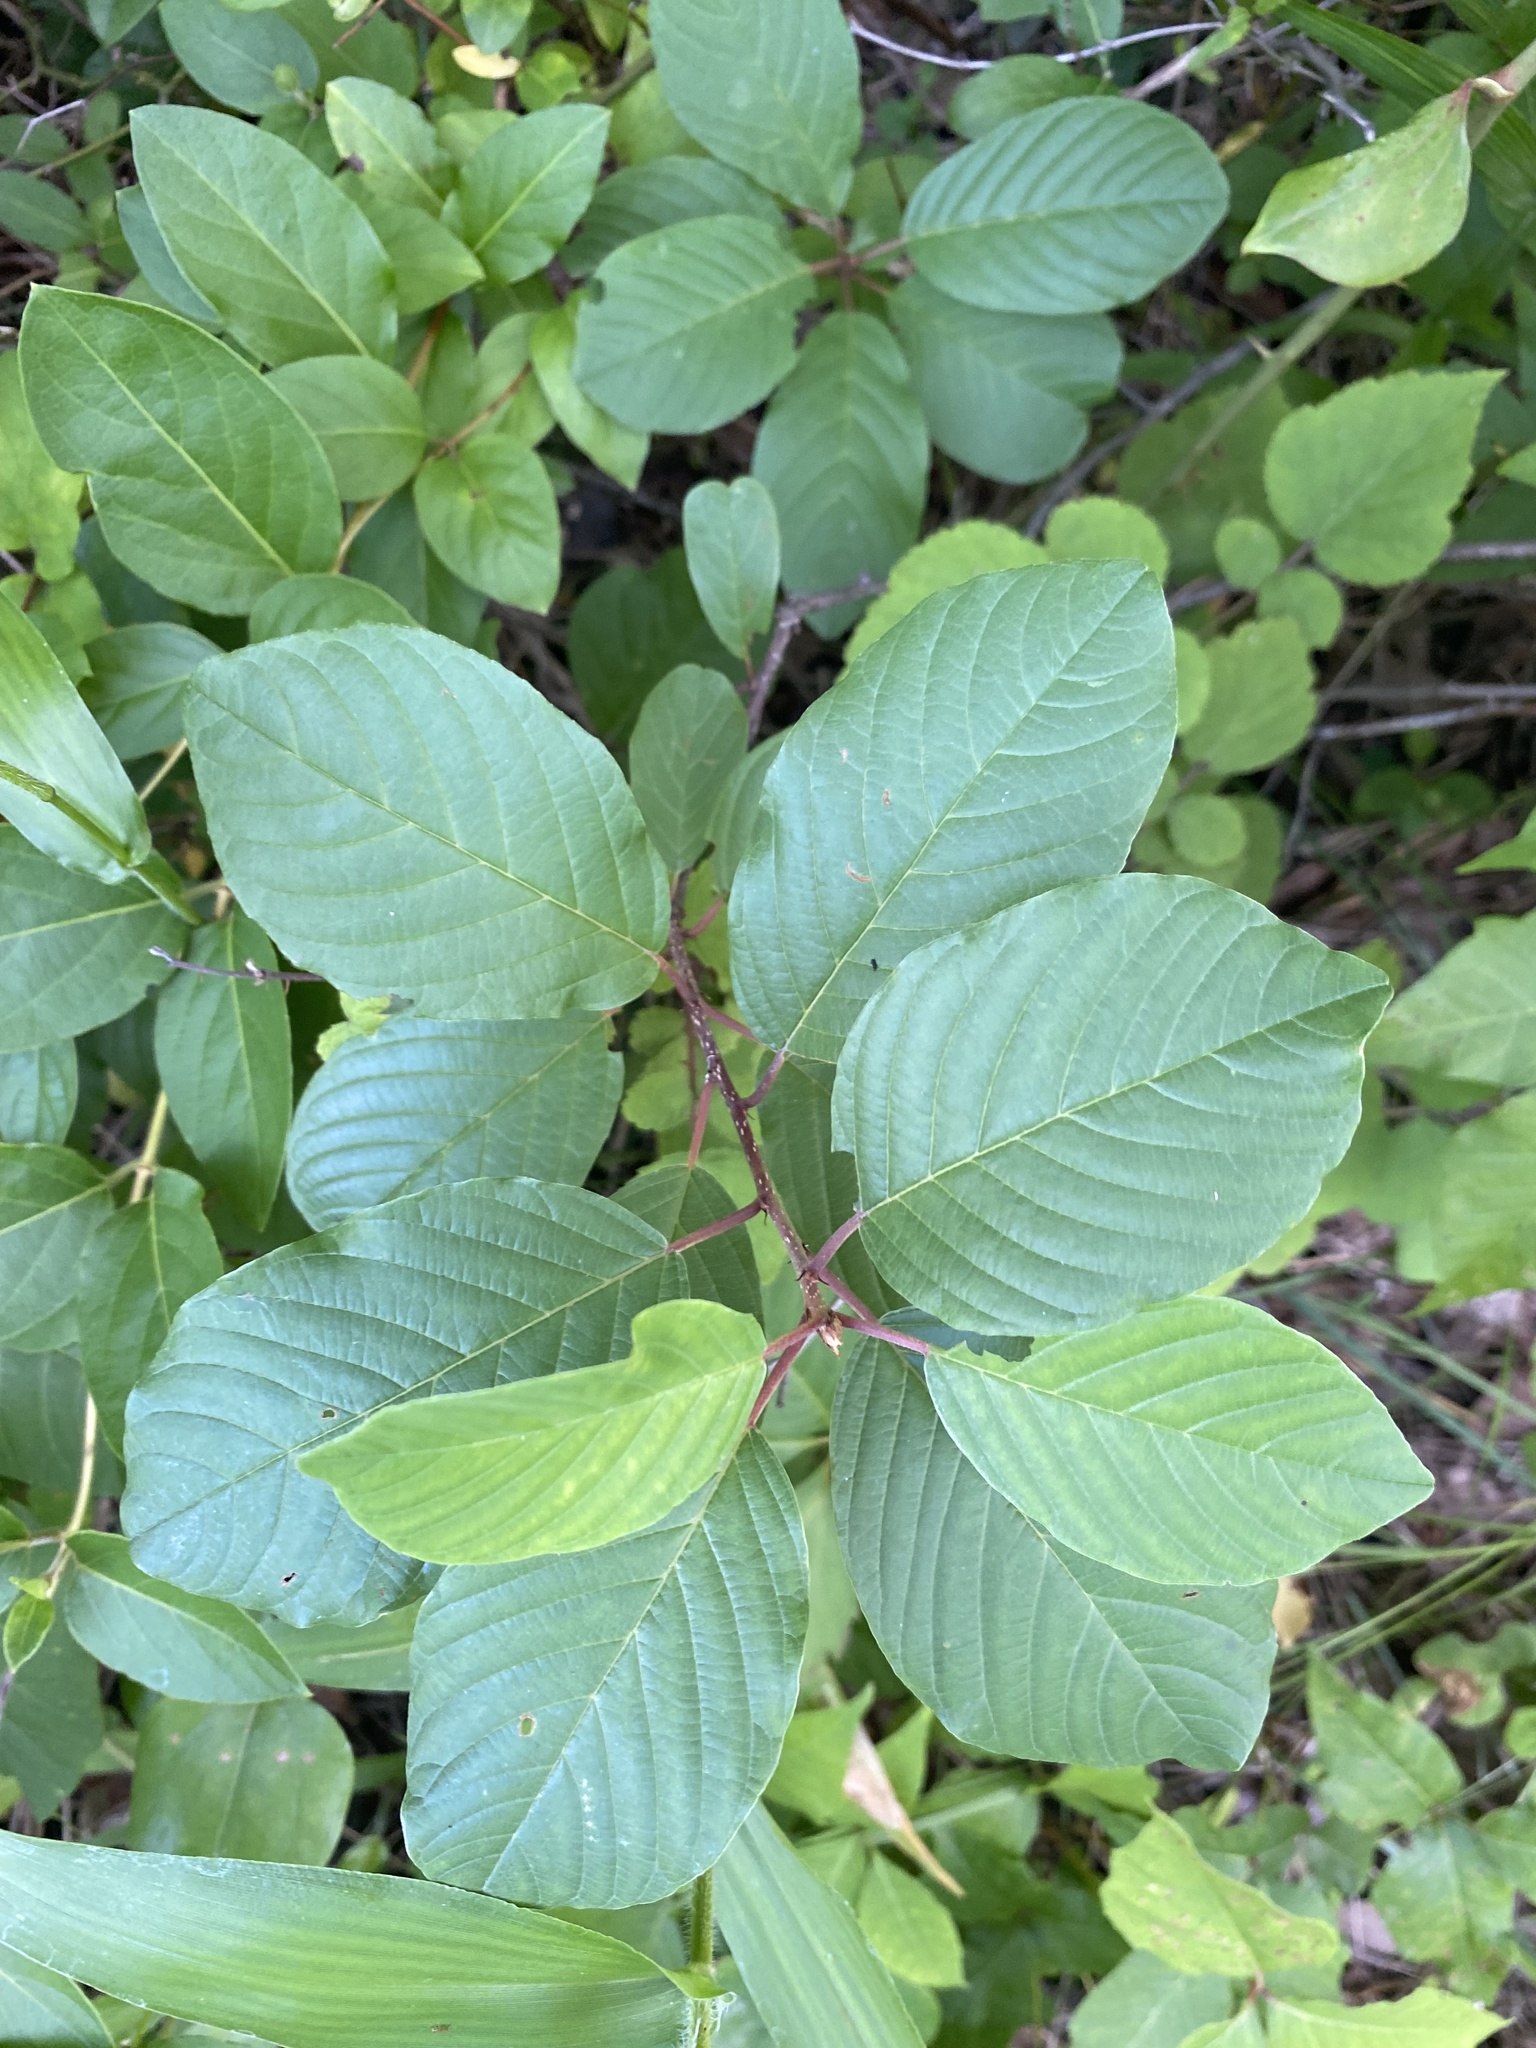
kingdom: Plantae
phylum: Tracheophyta
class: Magnoliopsida
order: Rosales
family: Rhamnaceae
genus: Frangula
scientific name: Frangula alnus
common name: Alder buckthorn
